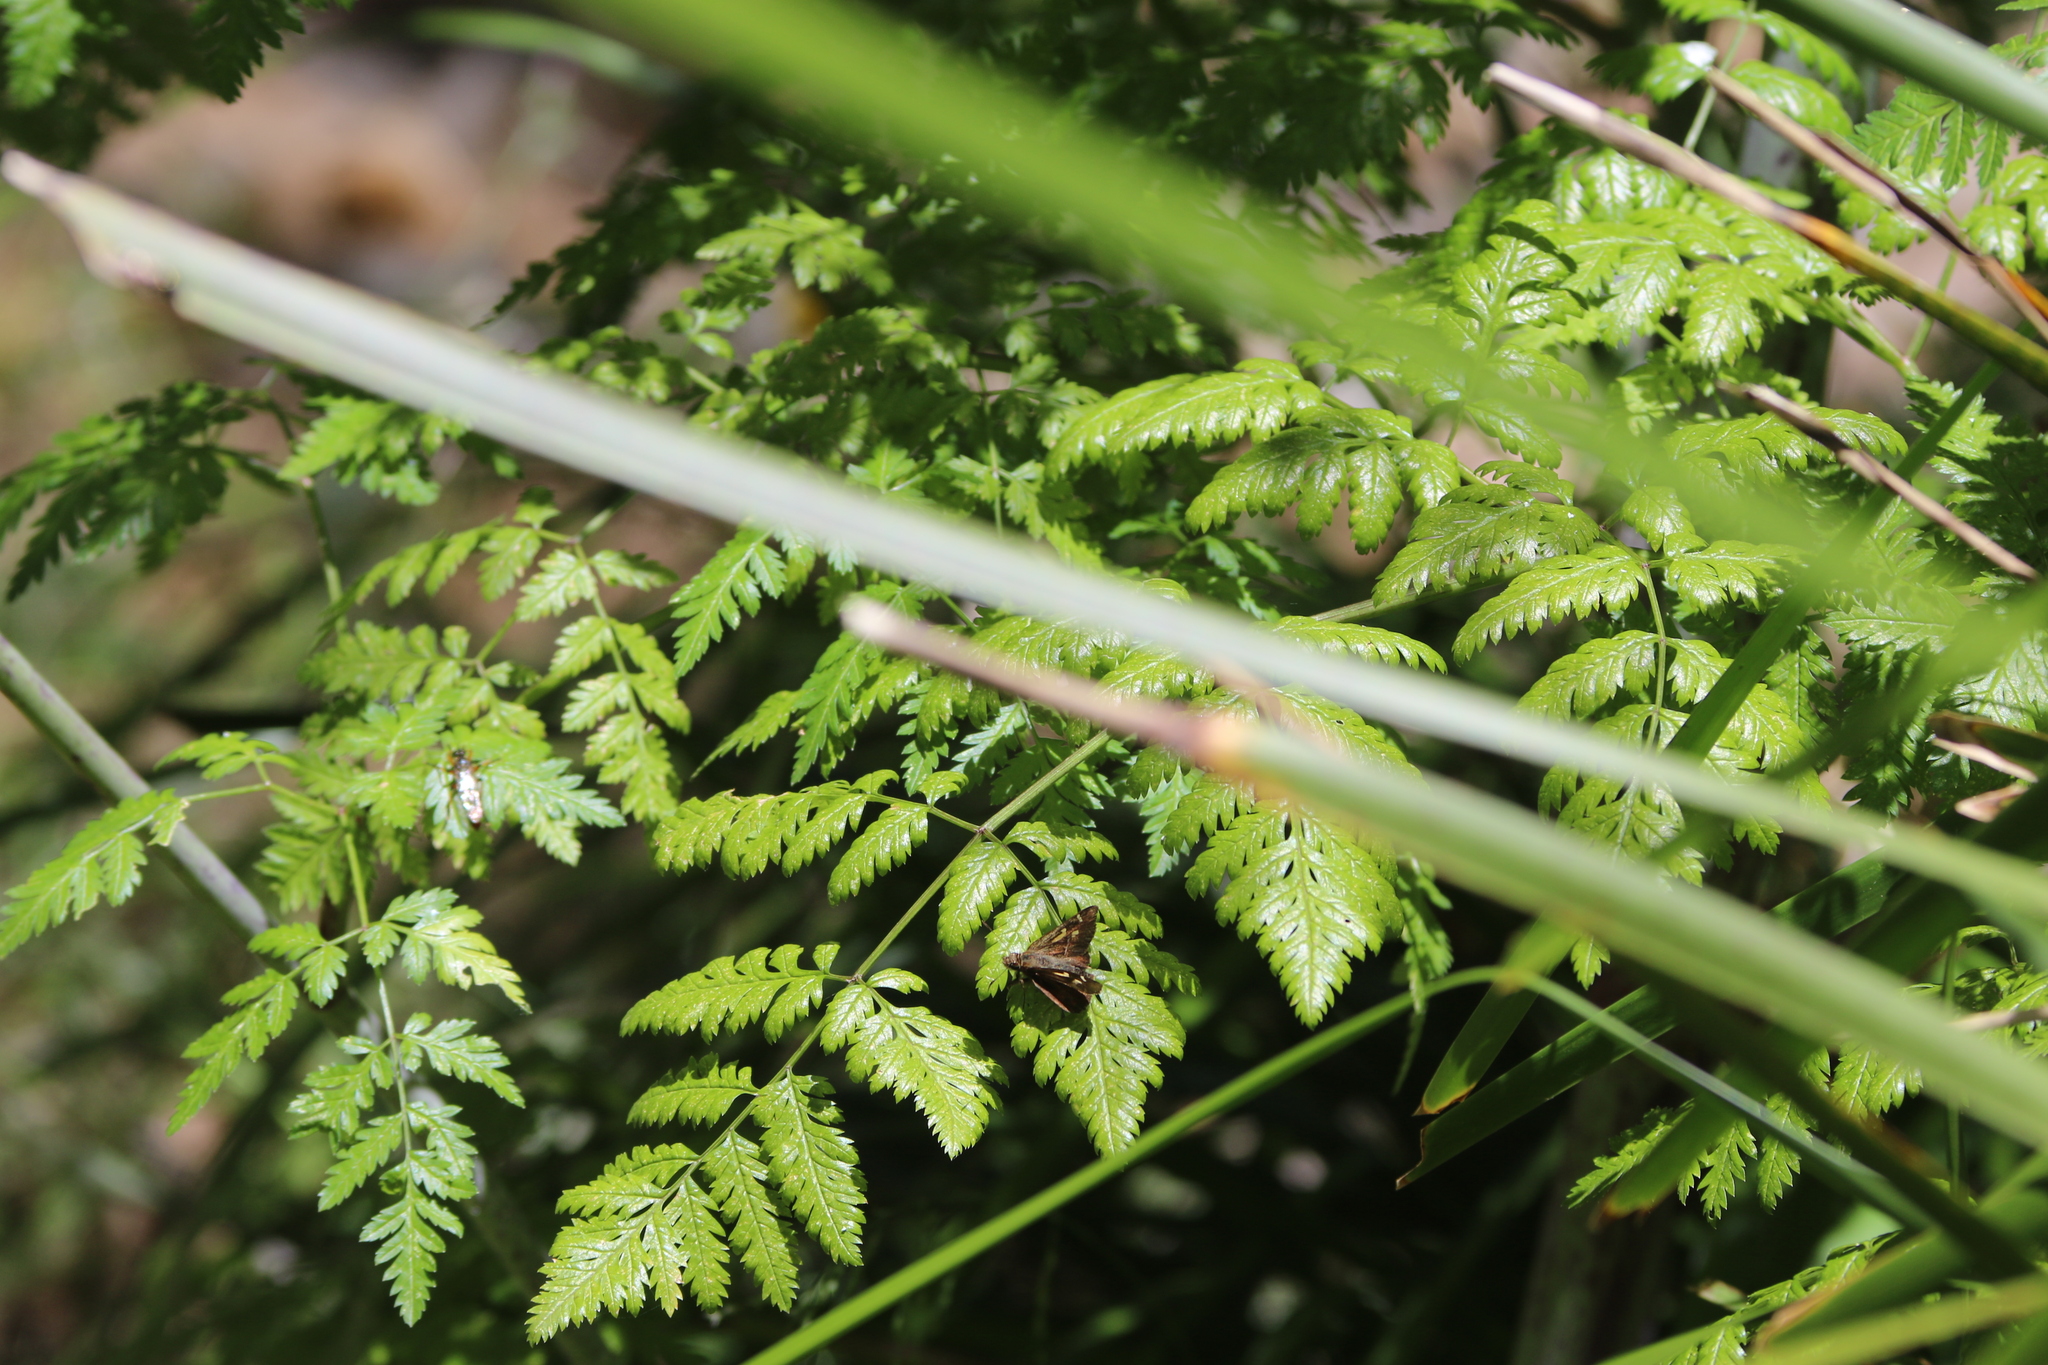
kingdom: Animalia
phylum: Arthropoda
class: Insecta
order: Lepidoptera
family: Hesperiidae
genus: Toxidia
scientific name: Toxidia doubledayi
